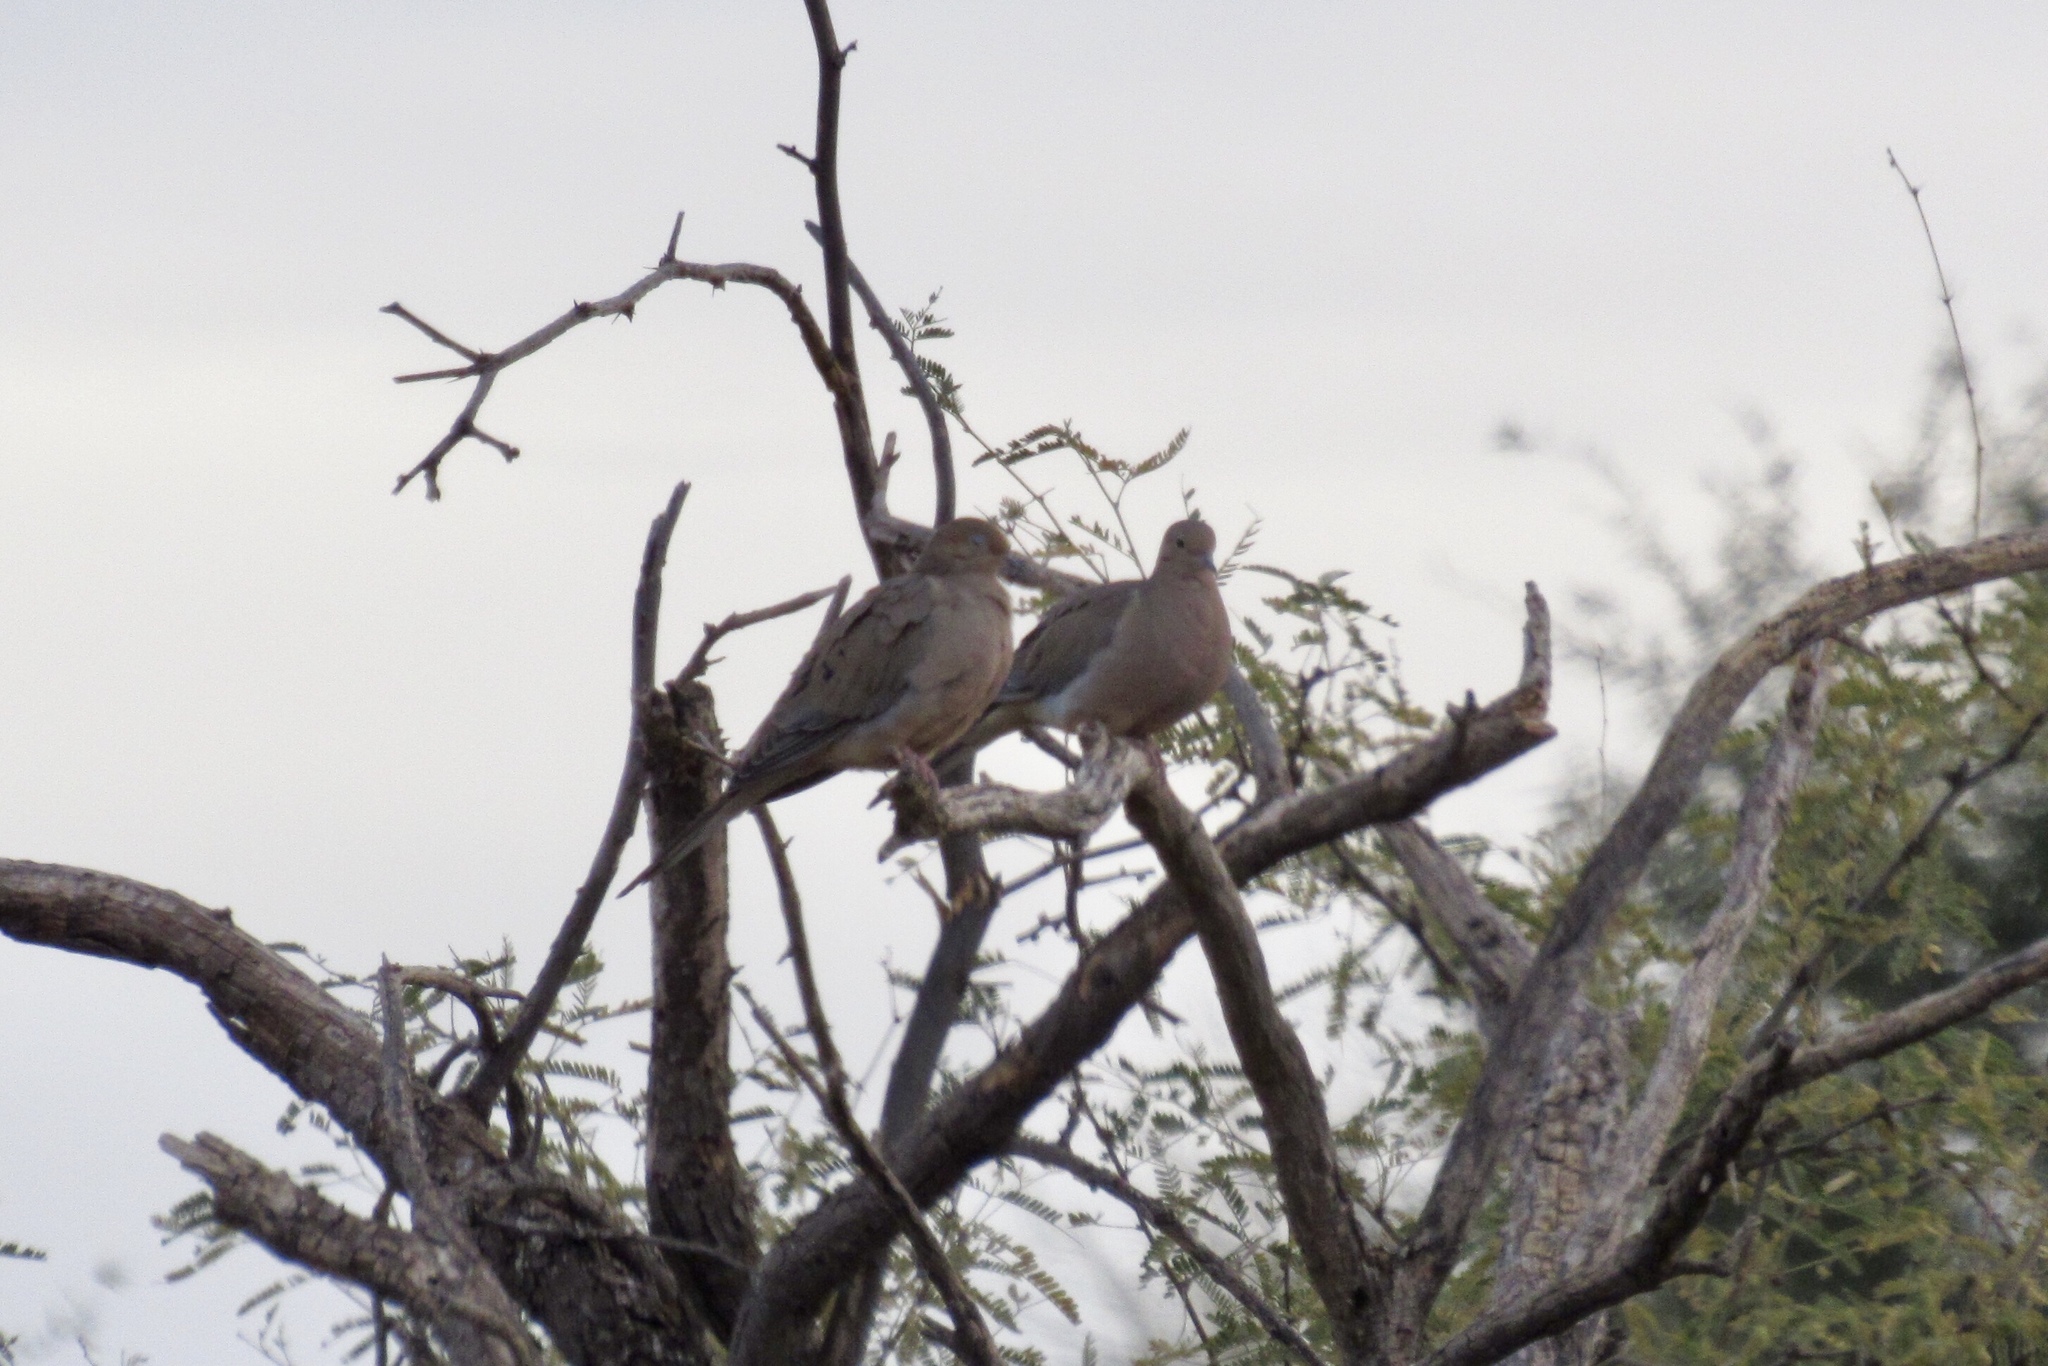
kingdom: Animalia
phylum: Chordata
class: Aves
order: Columbiformes
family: Columbidae
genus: Zenaida
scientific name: Zenaida macroura
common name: Mourning dove
